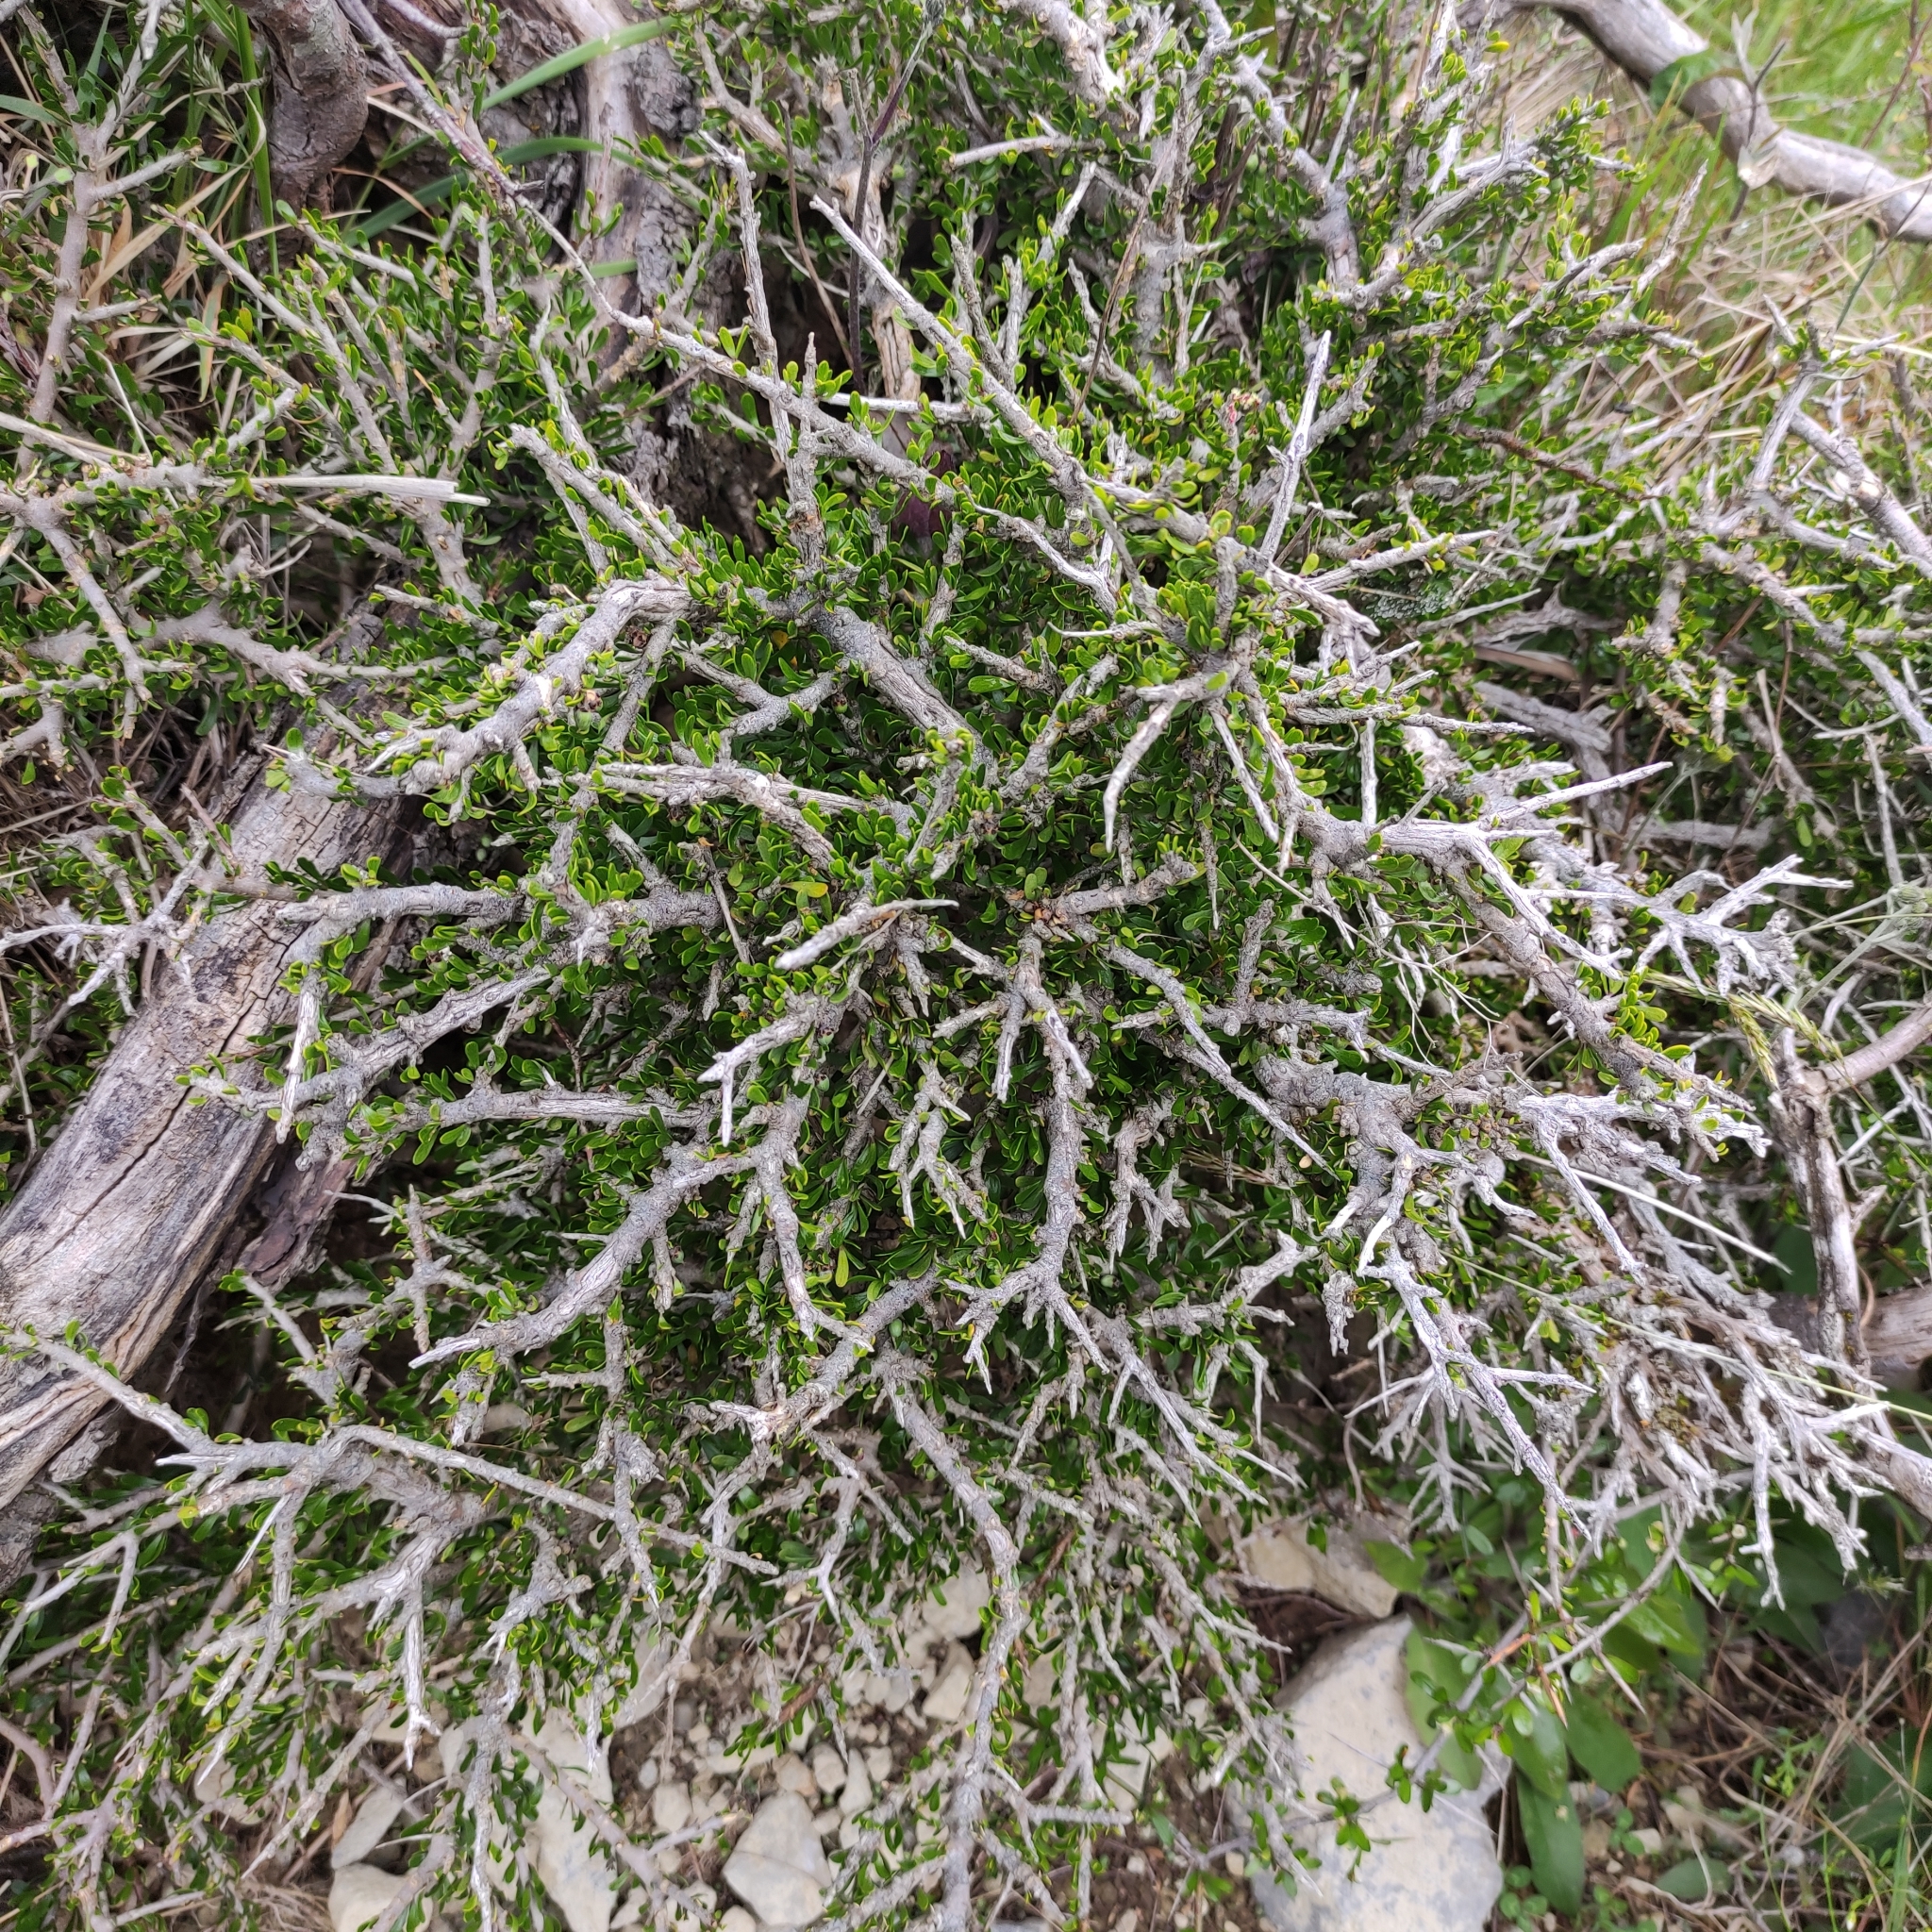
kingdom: Plantae
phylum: Tracheophyta
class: Magnoliopsida
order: Malpighiales
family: Violaceae
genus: Melicytus
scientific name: Melicytus alpinus
